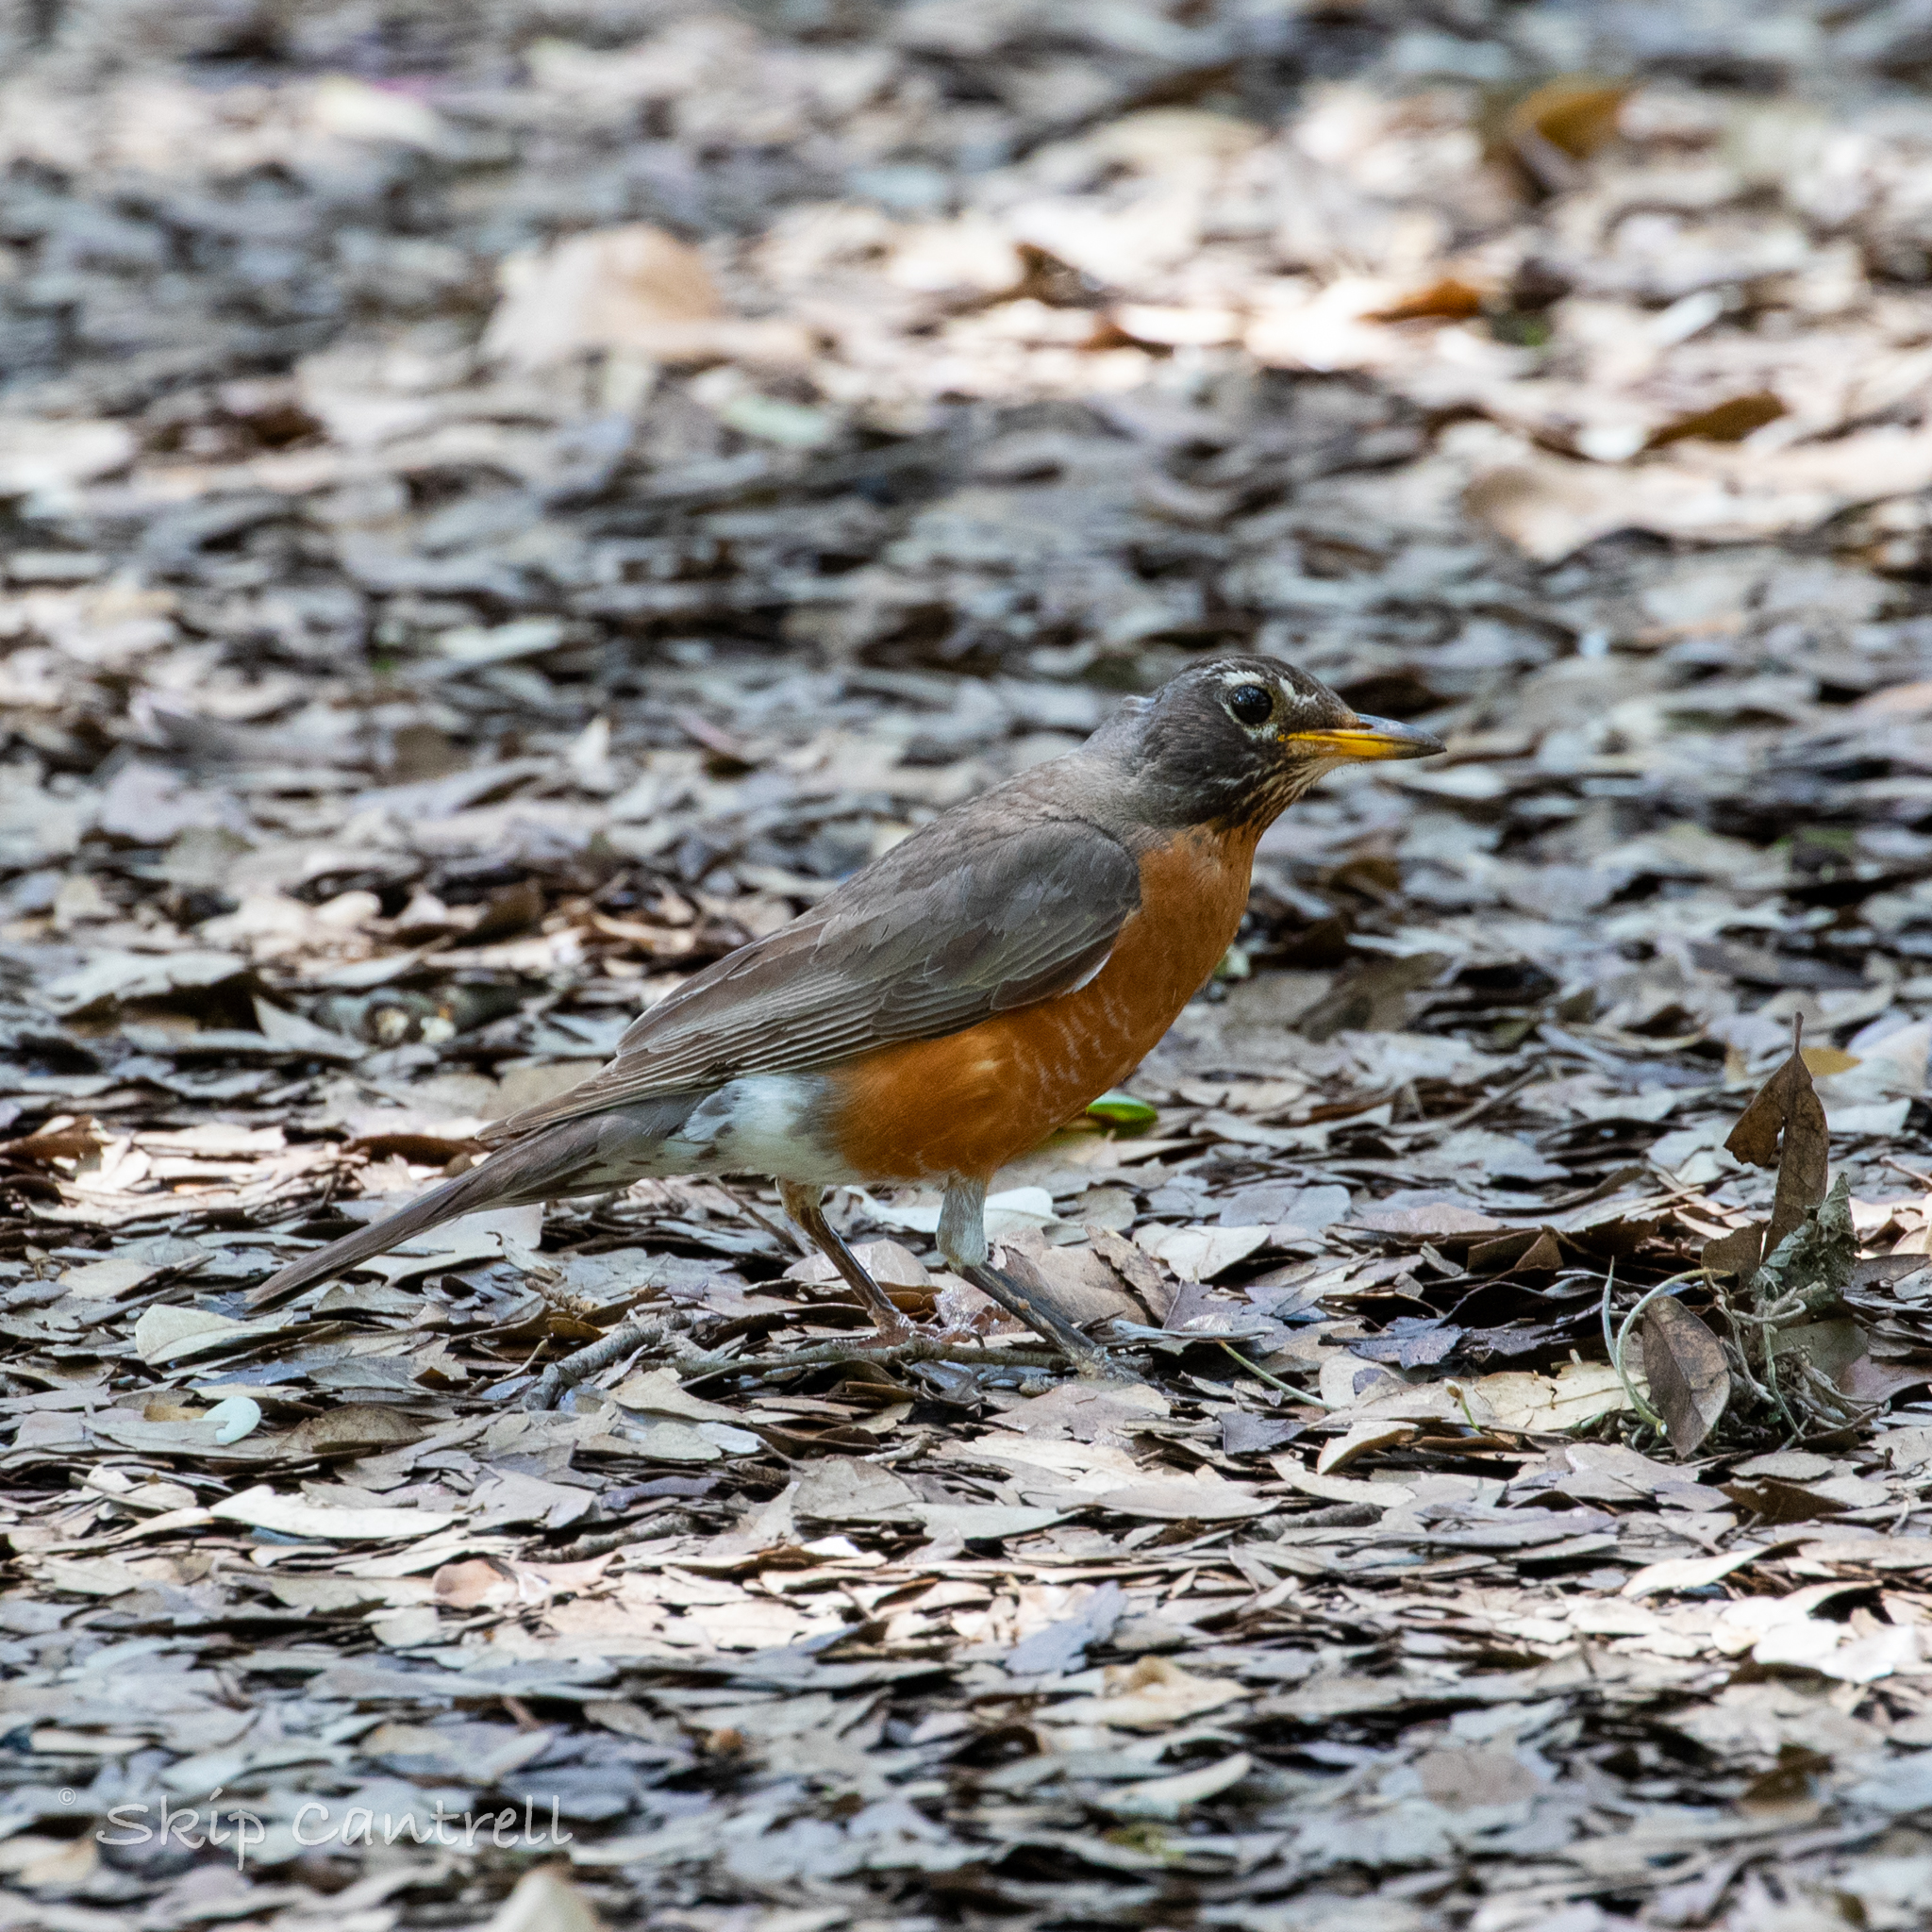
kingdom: Animalia
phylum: Chordata
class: Aves
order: Passeriformes
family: Turdidae
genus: Turdus
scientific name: Turdus migratorius
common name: American robin
